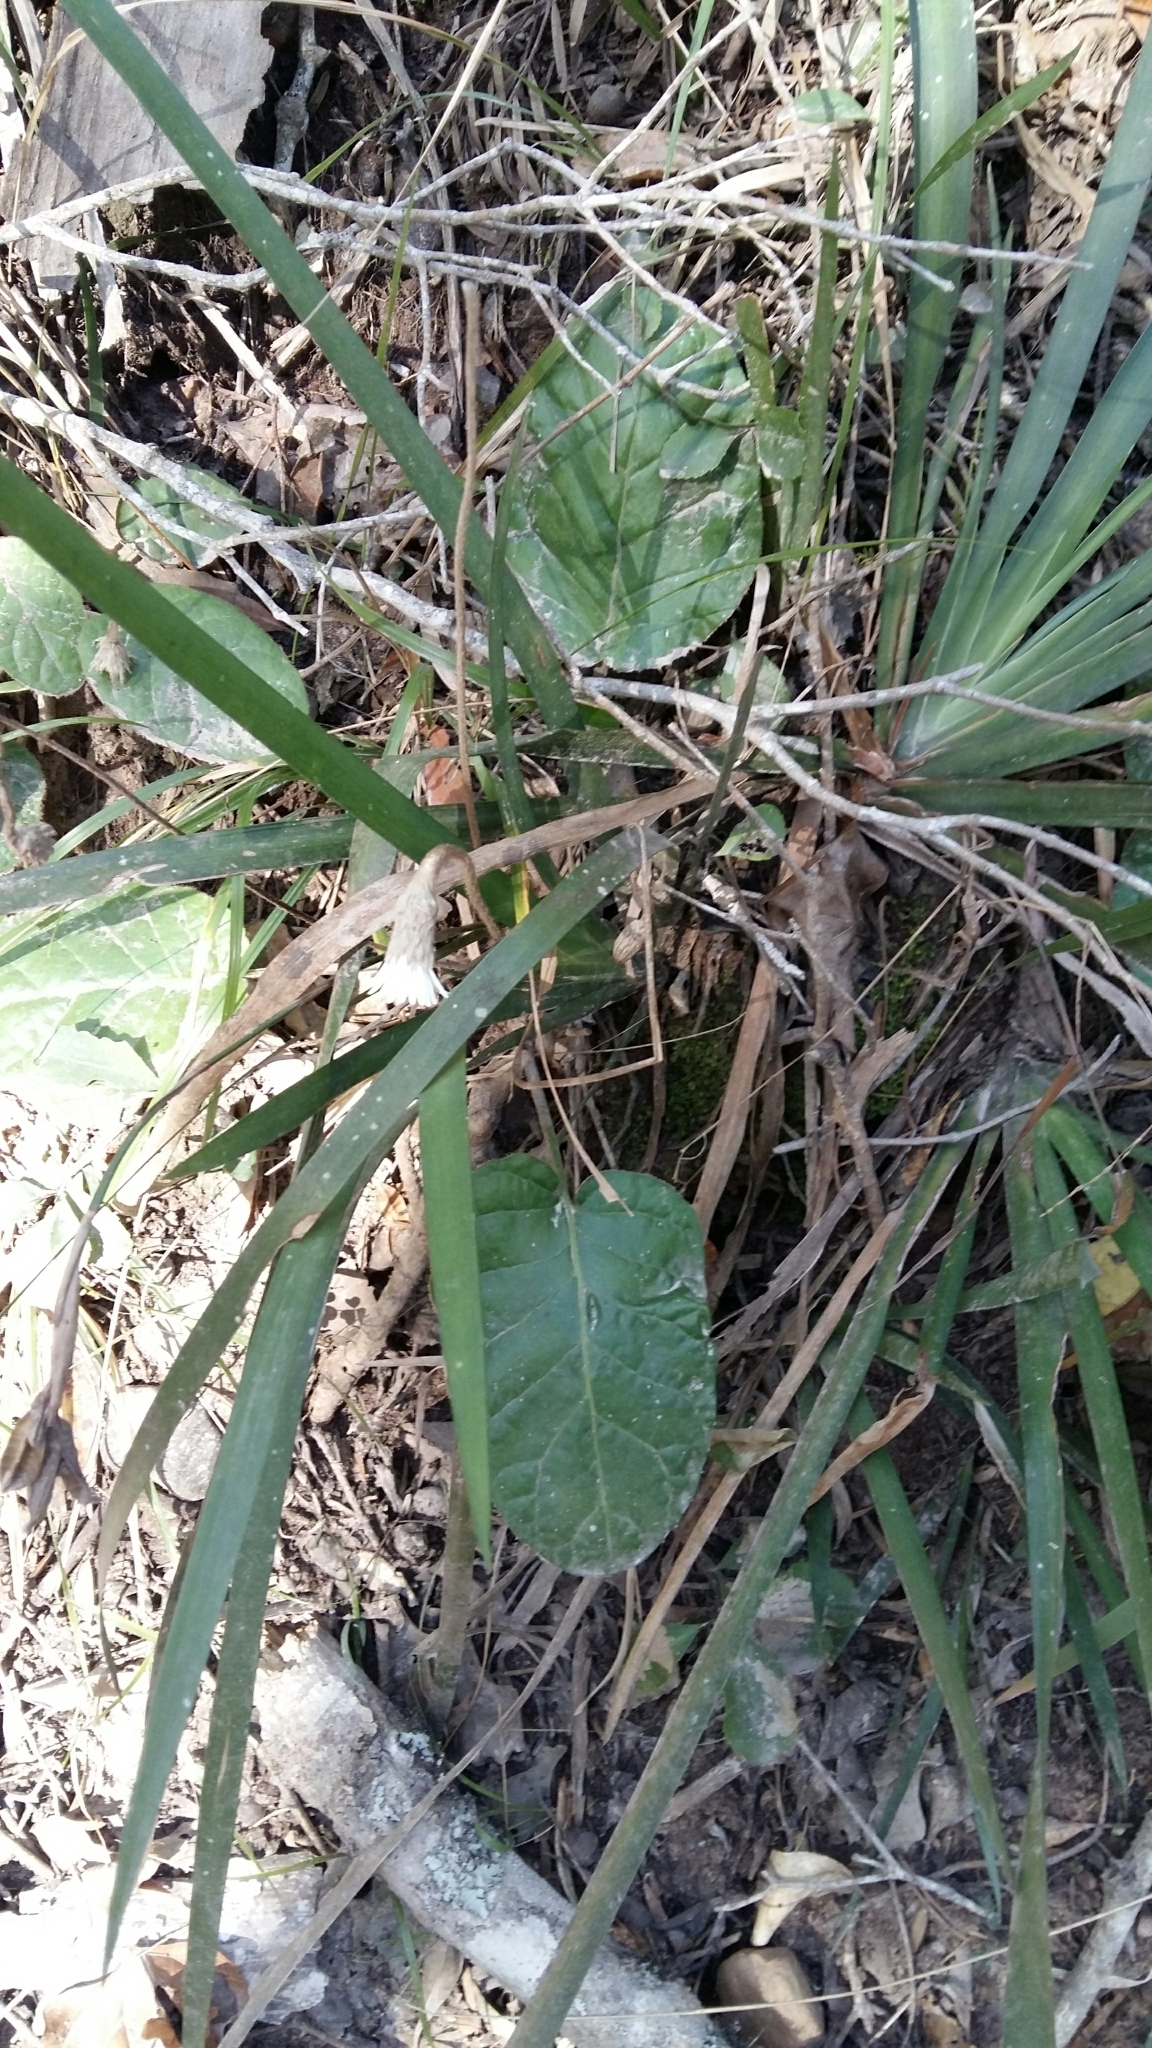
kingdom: Plantae
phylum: Tracheophyta
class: Magnoliopsida
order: Asterales
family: Asteraceae
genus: Piloselloides
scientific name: Piloselloides cordata
